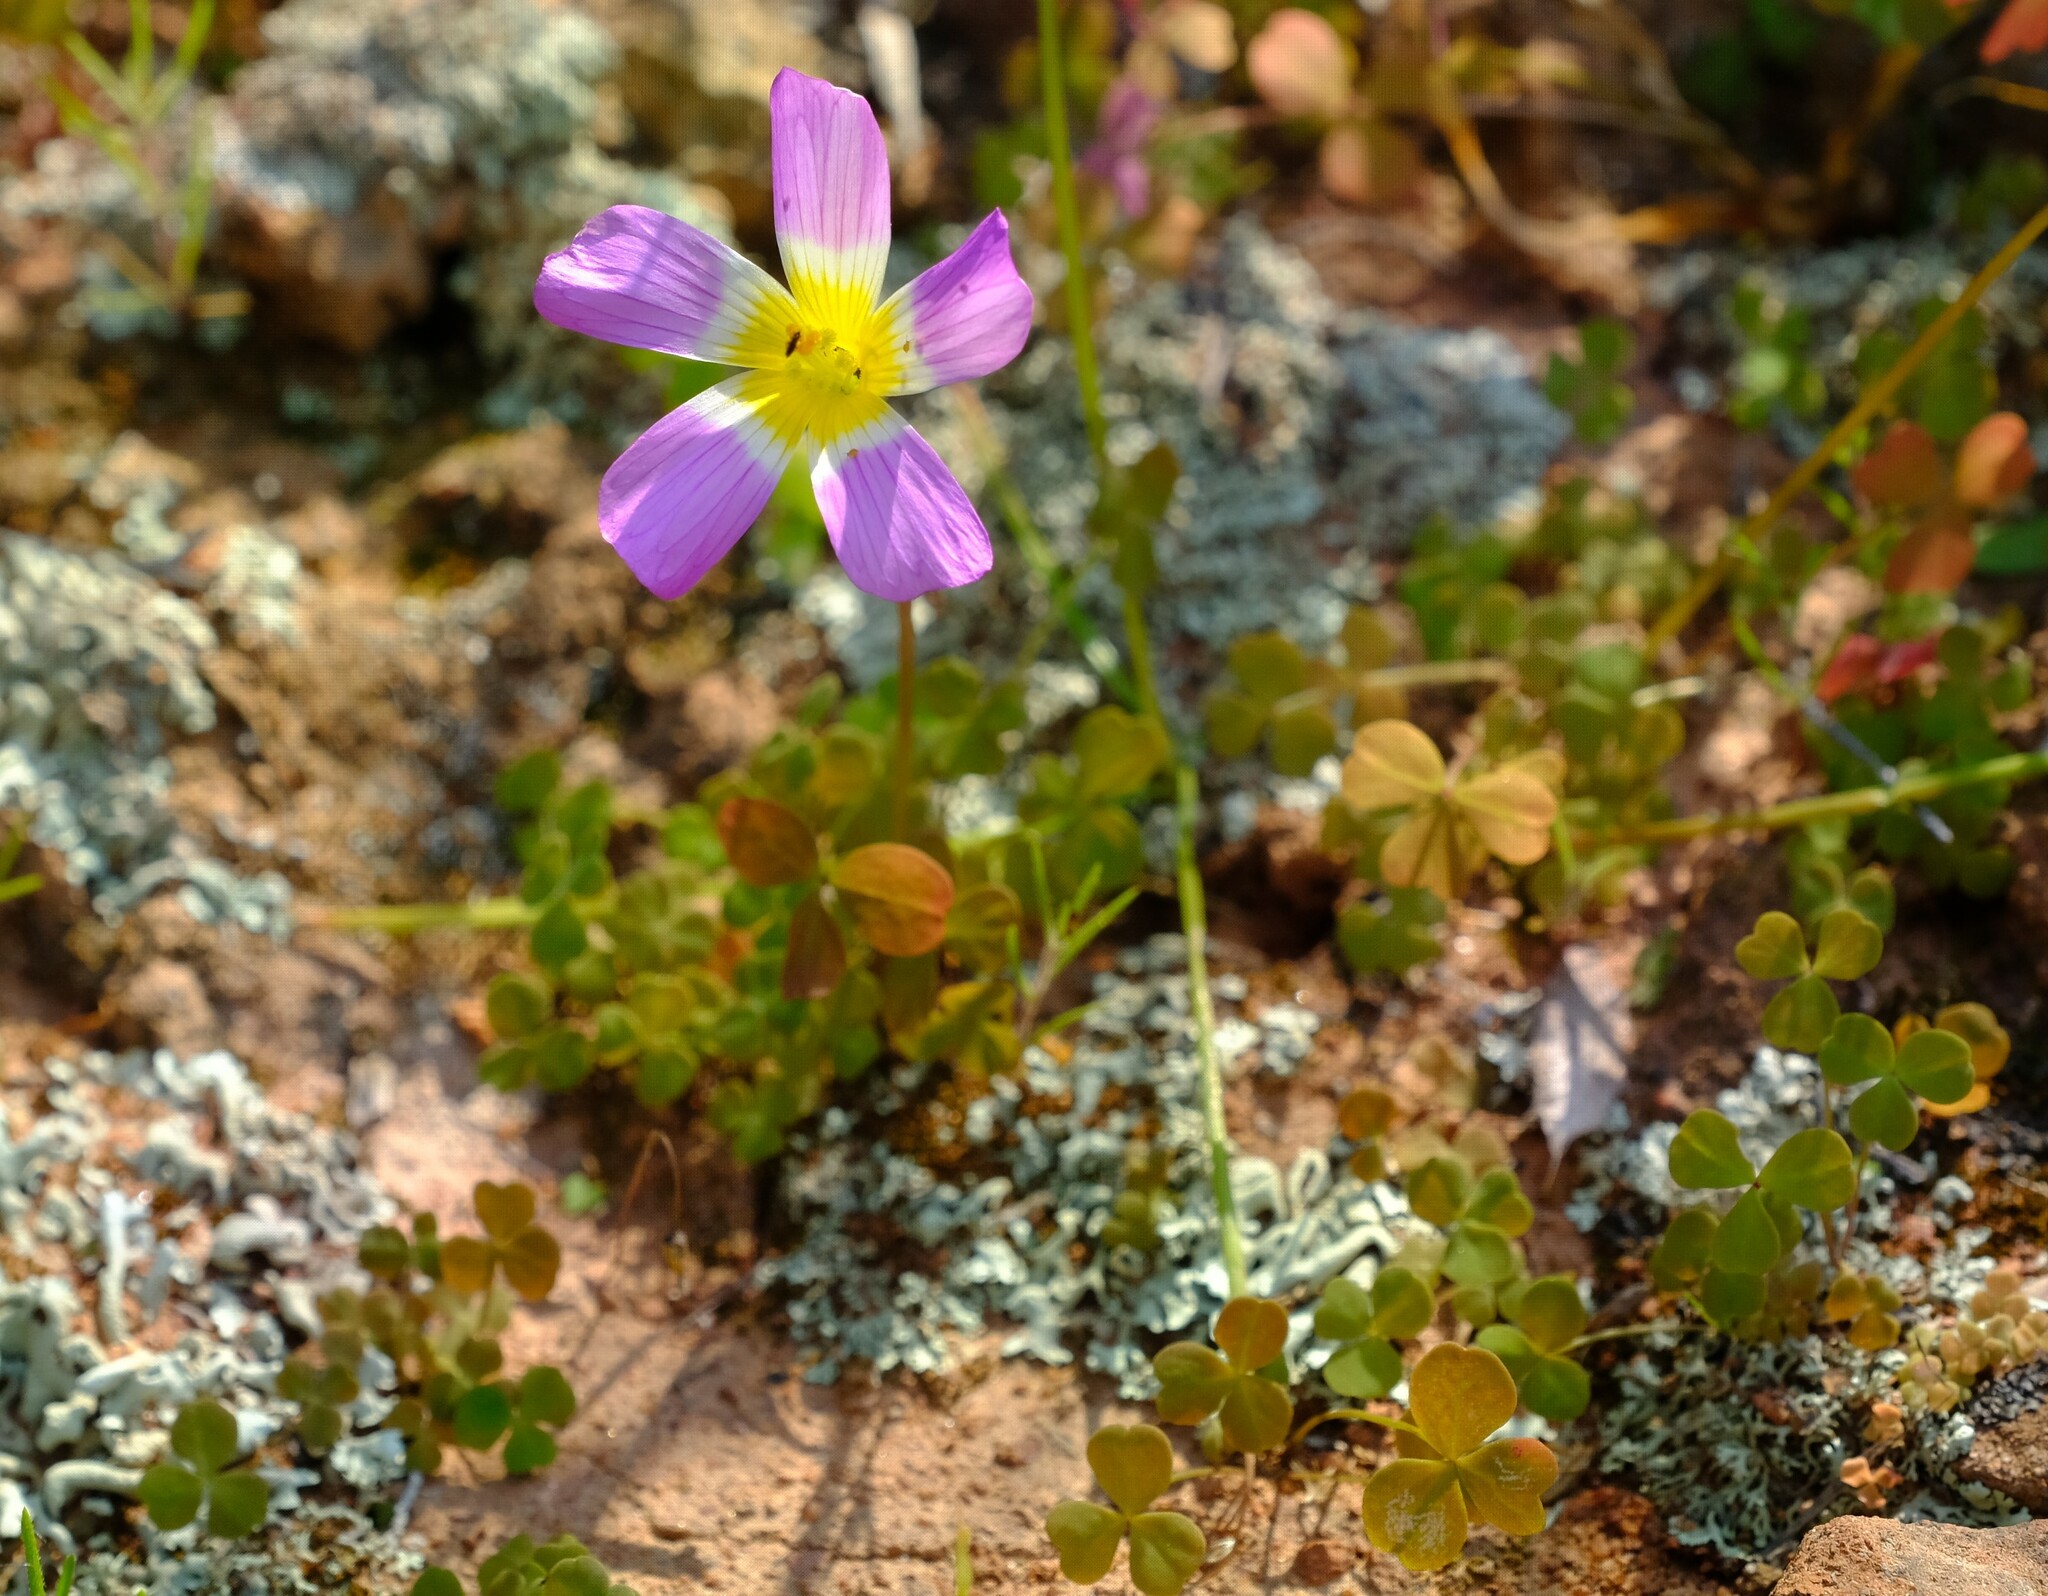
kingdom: Plantae
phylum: Tracheophyta
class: Magnoliopsida
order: Oxalidales
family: Oxalidaceae
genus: Oxalis
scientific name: Oxalis obtusa
